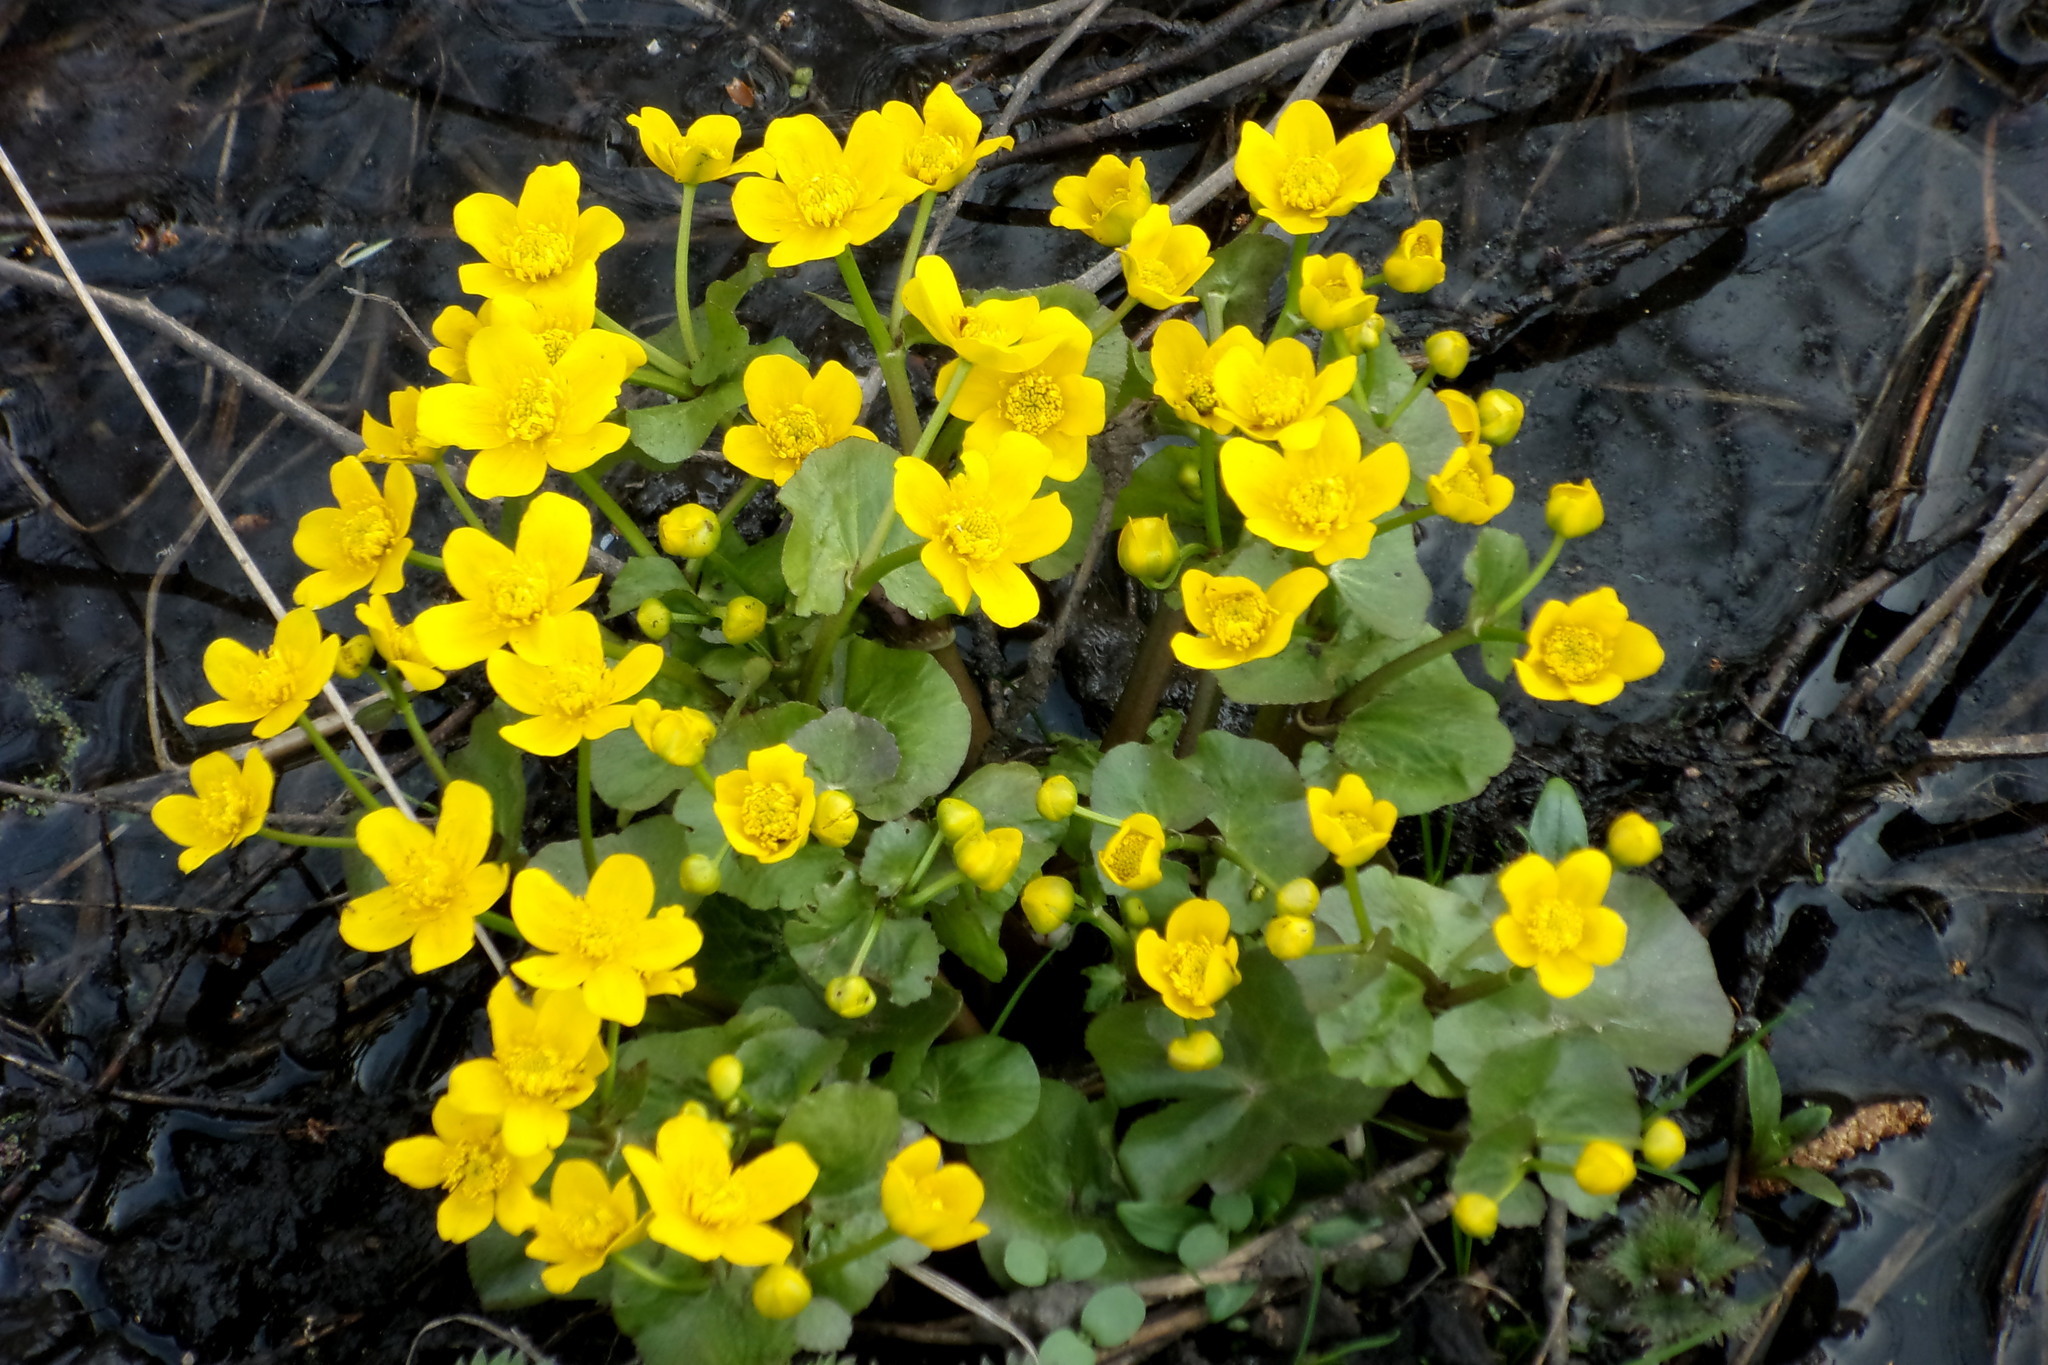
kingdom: Plantae
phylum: Tracheophyta
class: Magnoliopsida
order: Ranunculales
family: Ranunculaceae
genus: Caltha
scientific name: Caltha palustris
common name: Marsh marigold
